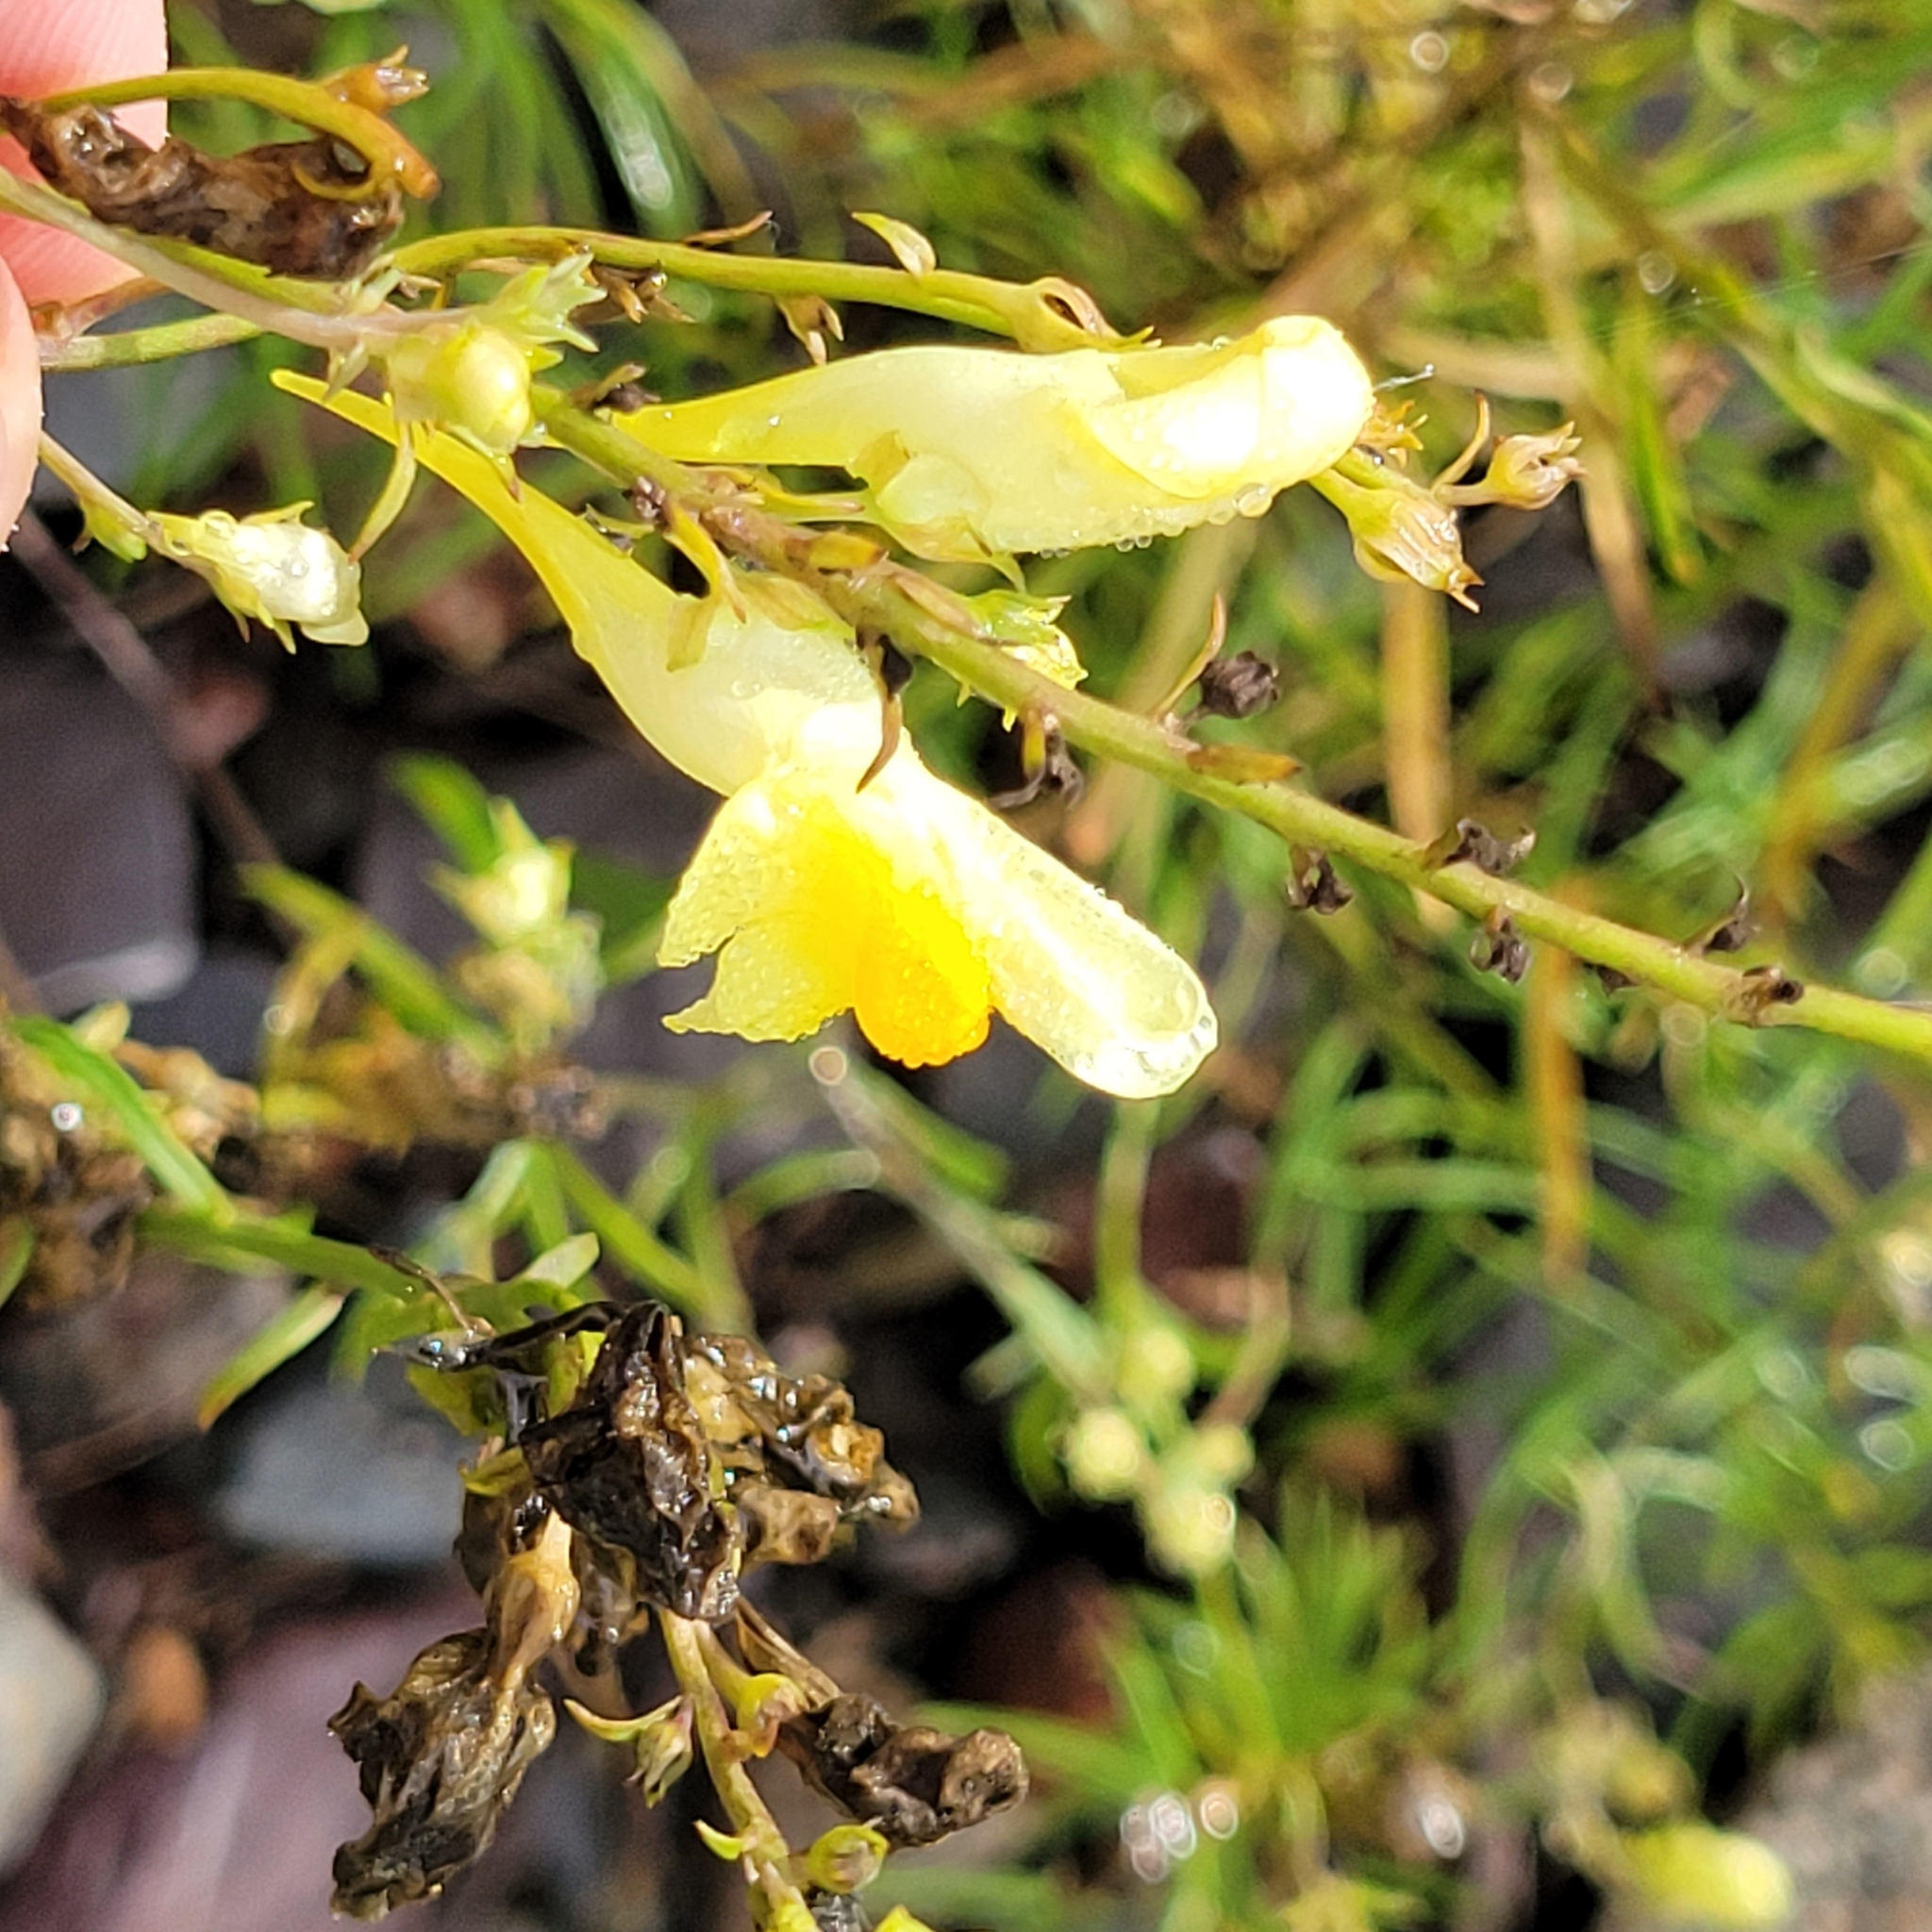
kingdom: Plantae
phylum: Tracheophyta
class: Magnoliopsida
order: Lamiales
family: Plantaginaceae
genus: Linaria
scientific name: Linaria vulgaris
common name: Butter and eggs
